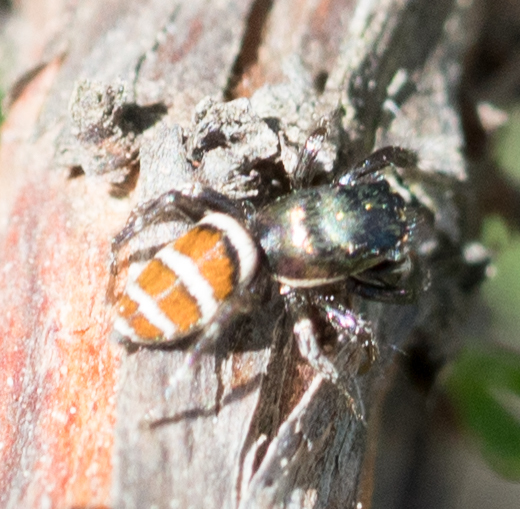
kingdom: Animalia
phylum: Arthropoda
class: Arachnida
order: Araneae
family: Salticidae
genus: Salticus
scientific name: Salticus palpalis
